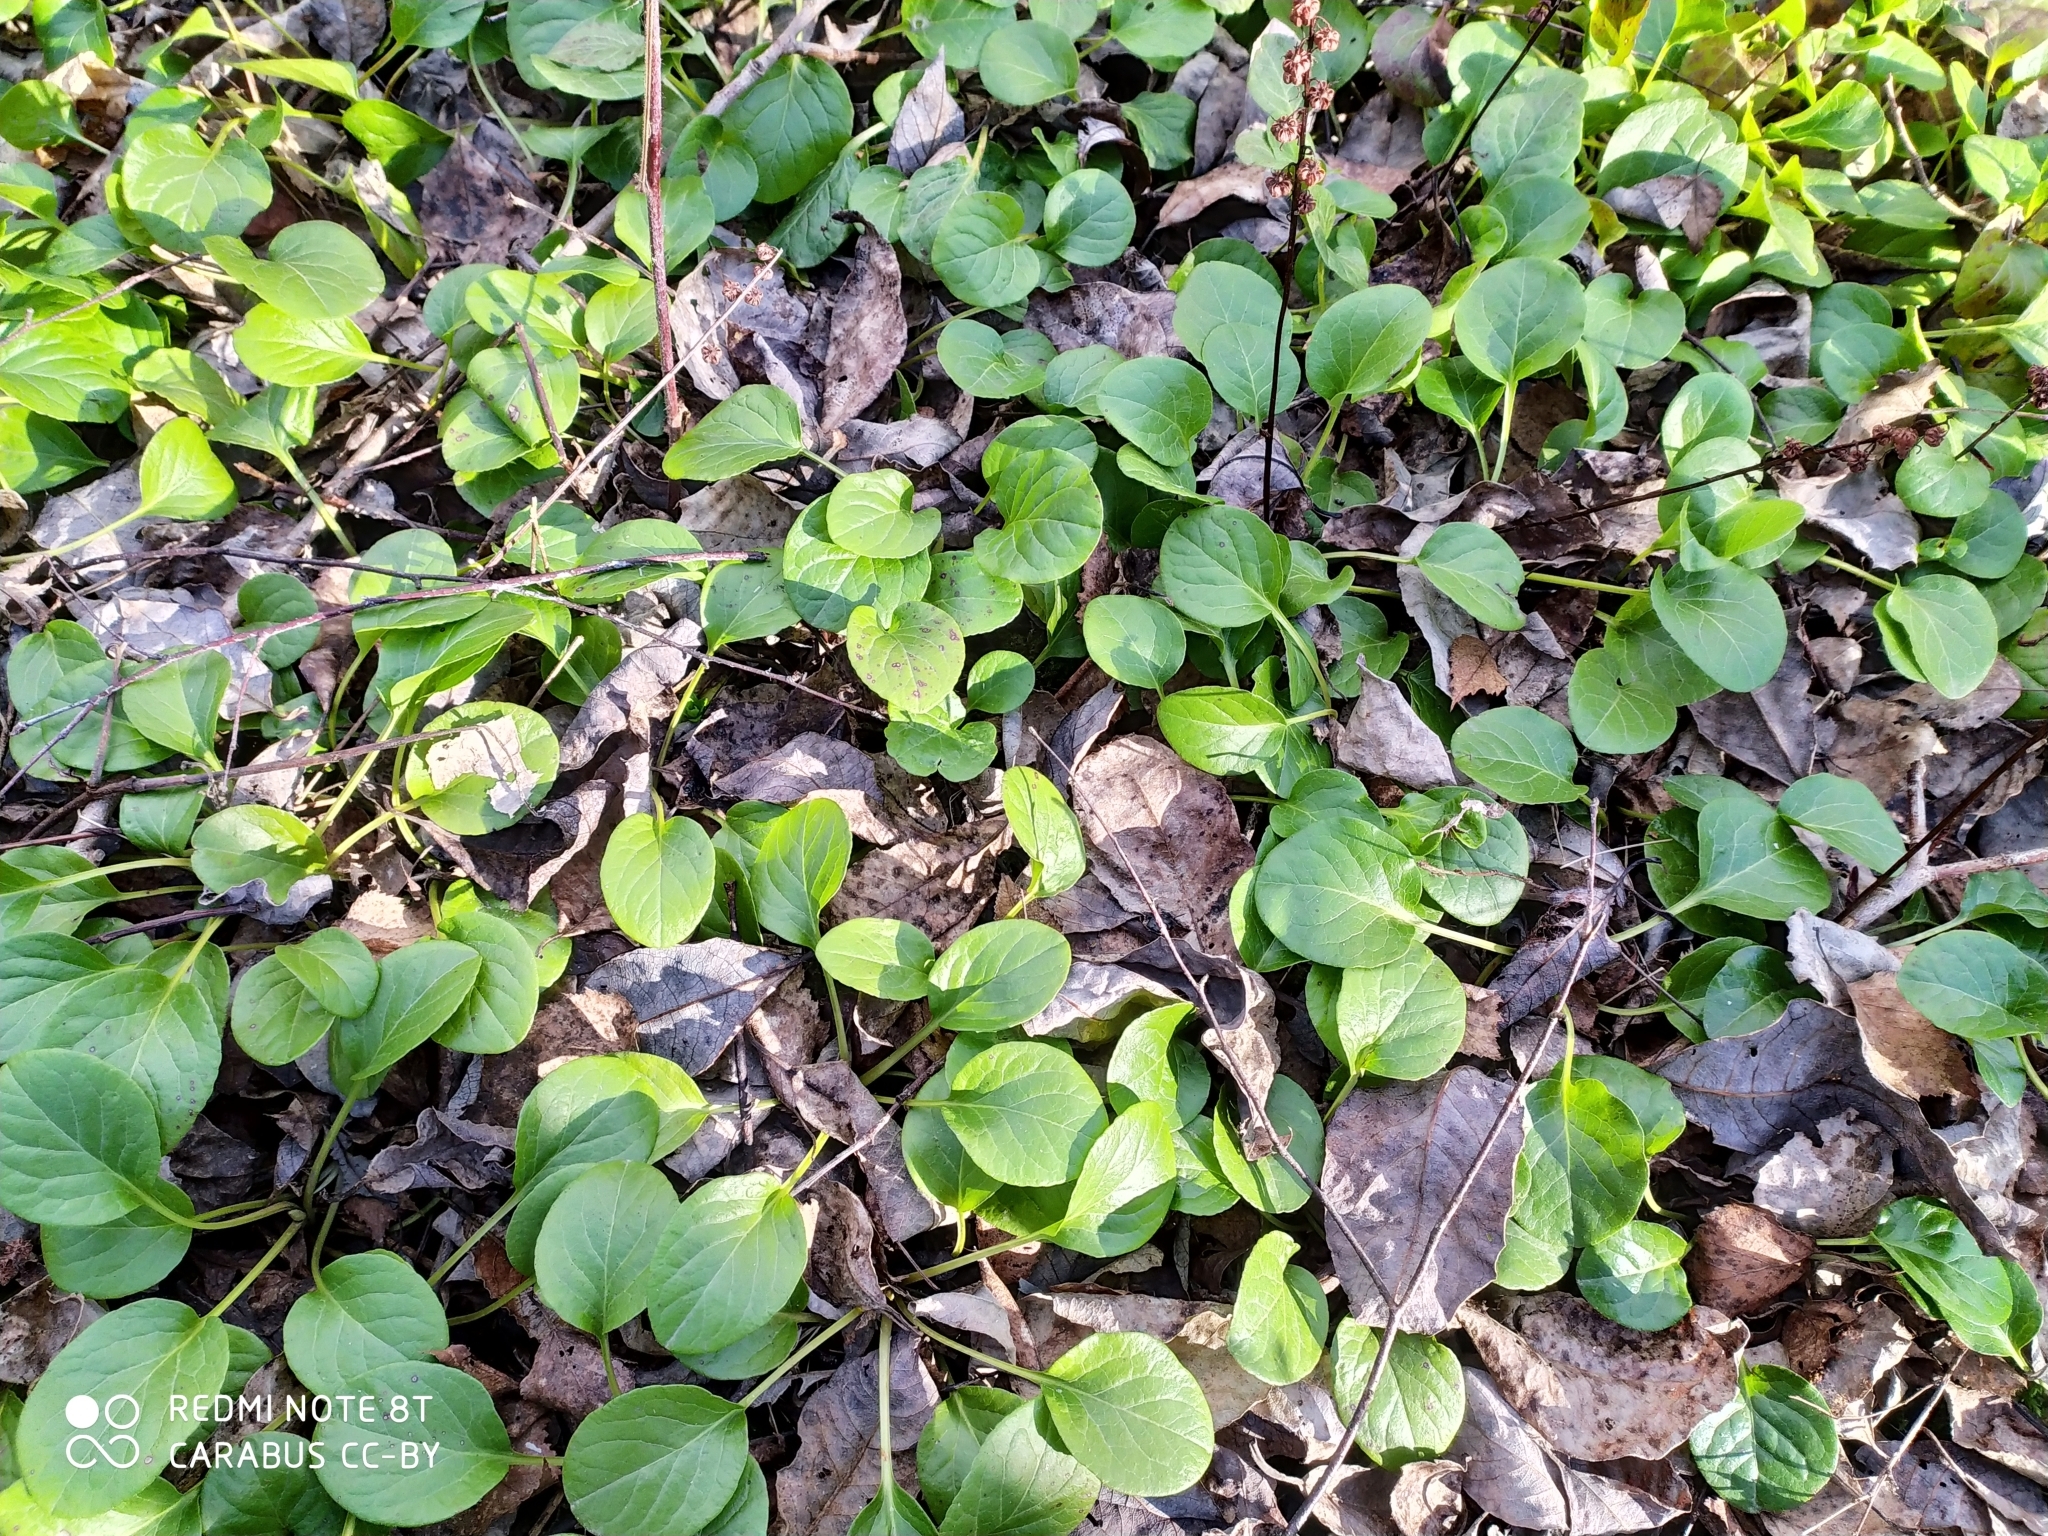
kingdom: Plantae
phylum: Tracheophyta
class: Magnoliopsida
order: Ericales
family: Ericaceae
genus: Pyrola
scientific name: Pyrola rotundifolia
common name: Round-leaved wintergreen
